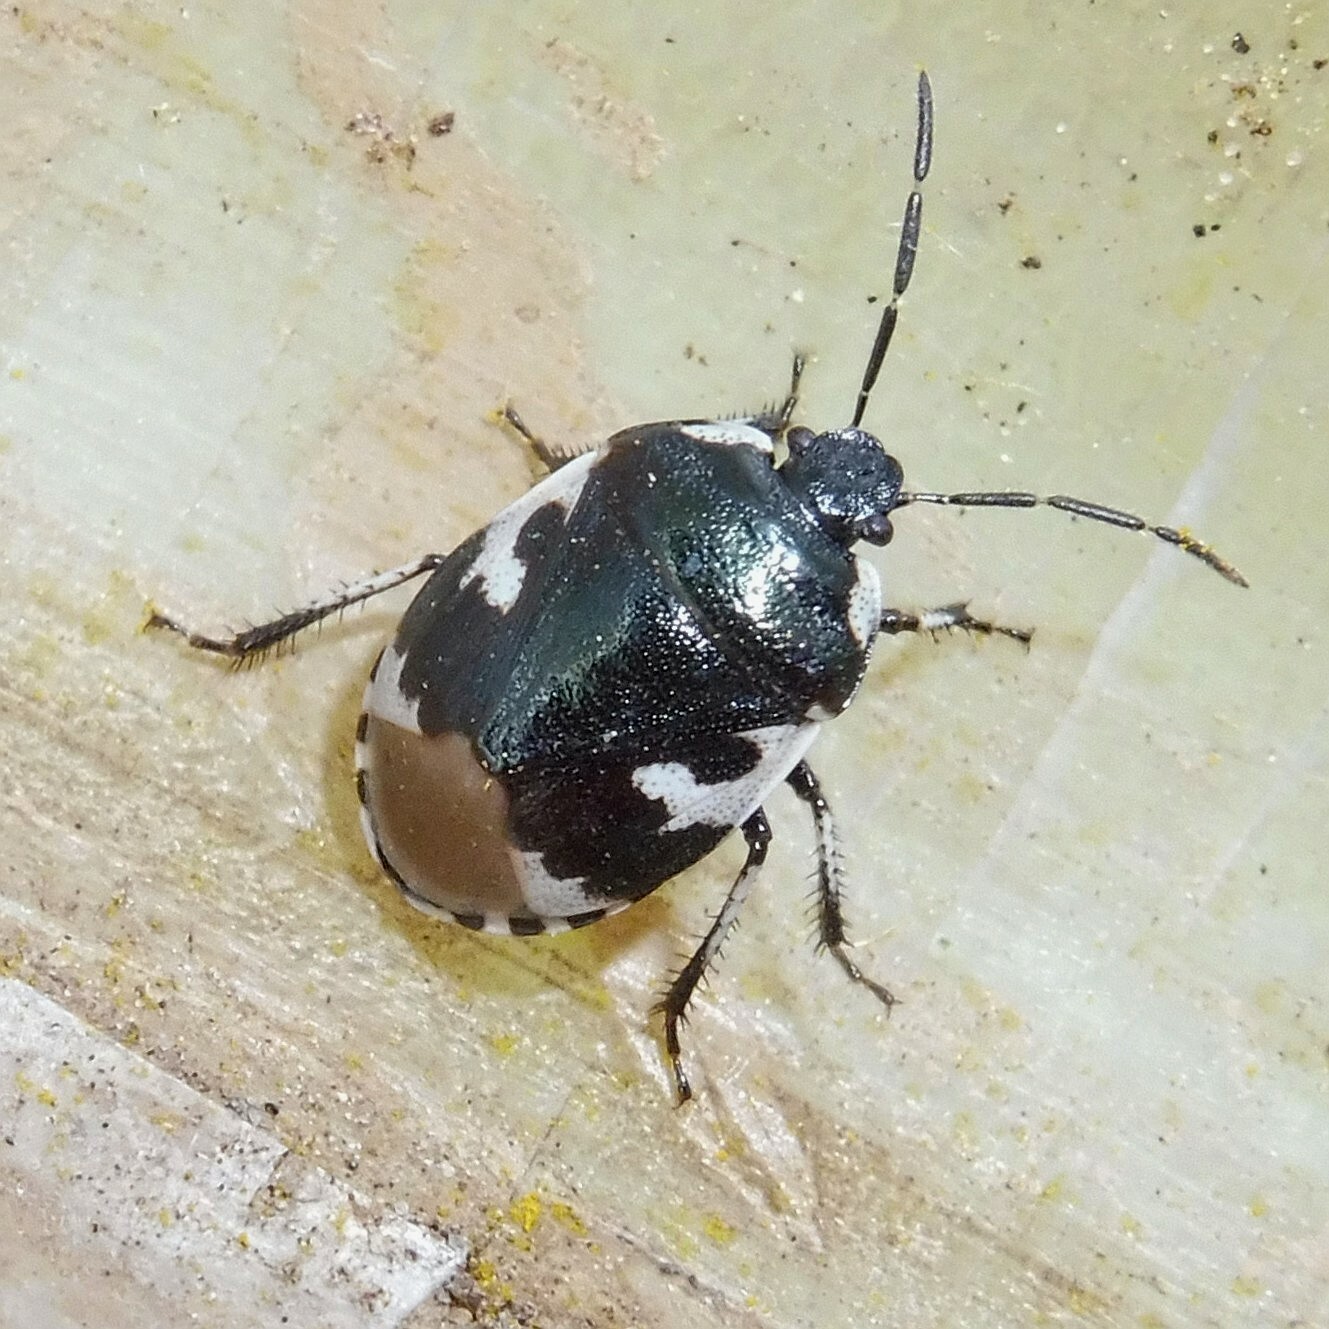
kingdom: Animalia
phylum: Arthropoda
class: Insecta
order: Hemiptera
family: Cydnidae
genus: Tritomegas
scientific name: Tritomegas bicolor
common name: Pied shieldbug
